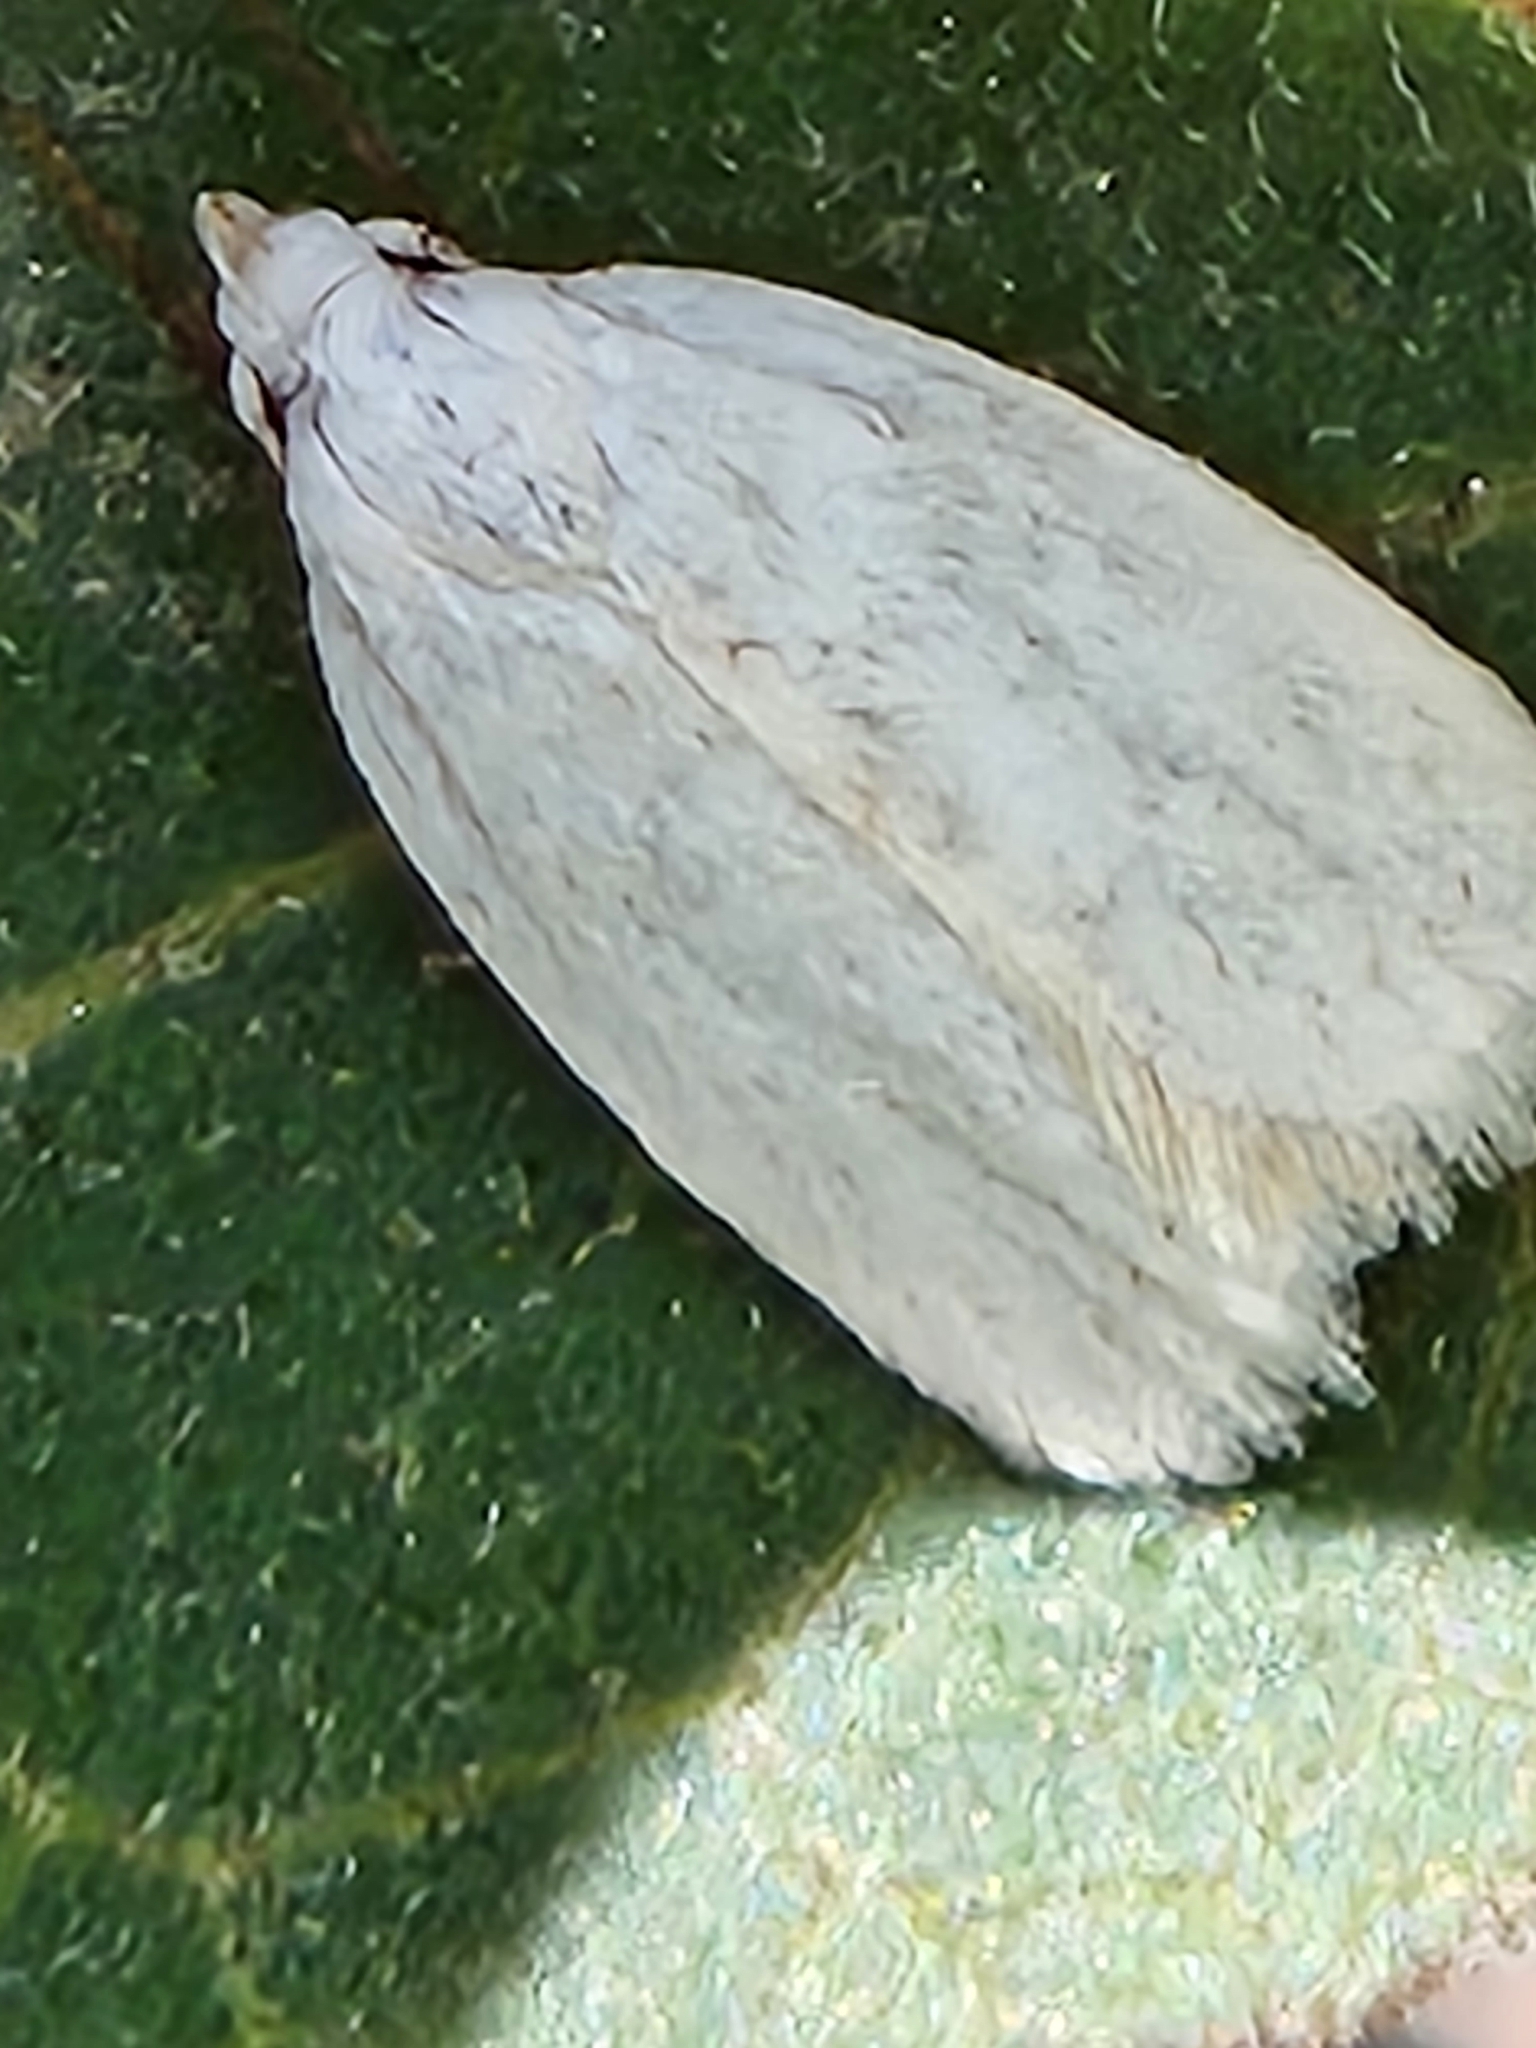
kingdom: Animalia
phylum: Arthropoda
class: Insecta
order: Lepidoptera
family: Oecophoridae
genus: Inga
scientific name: Inga cretacea
